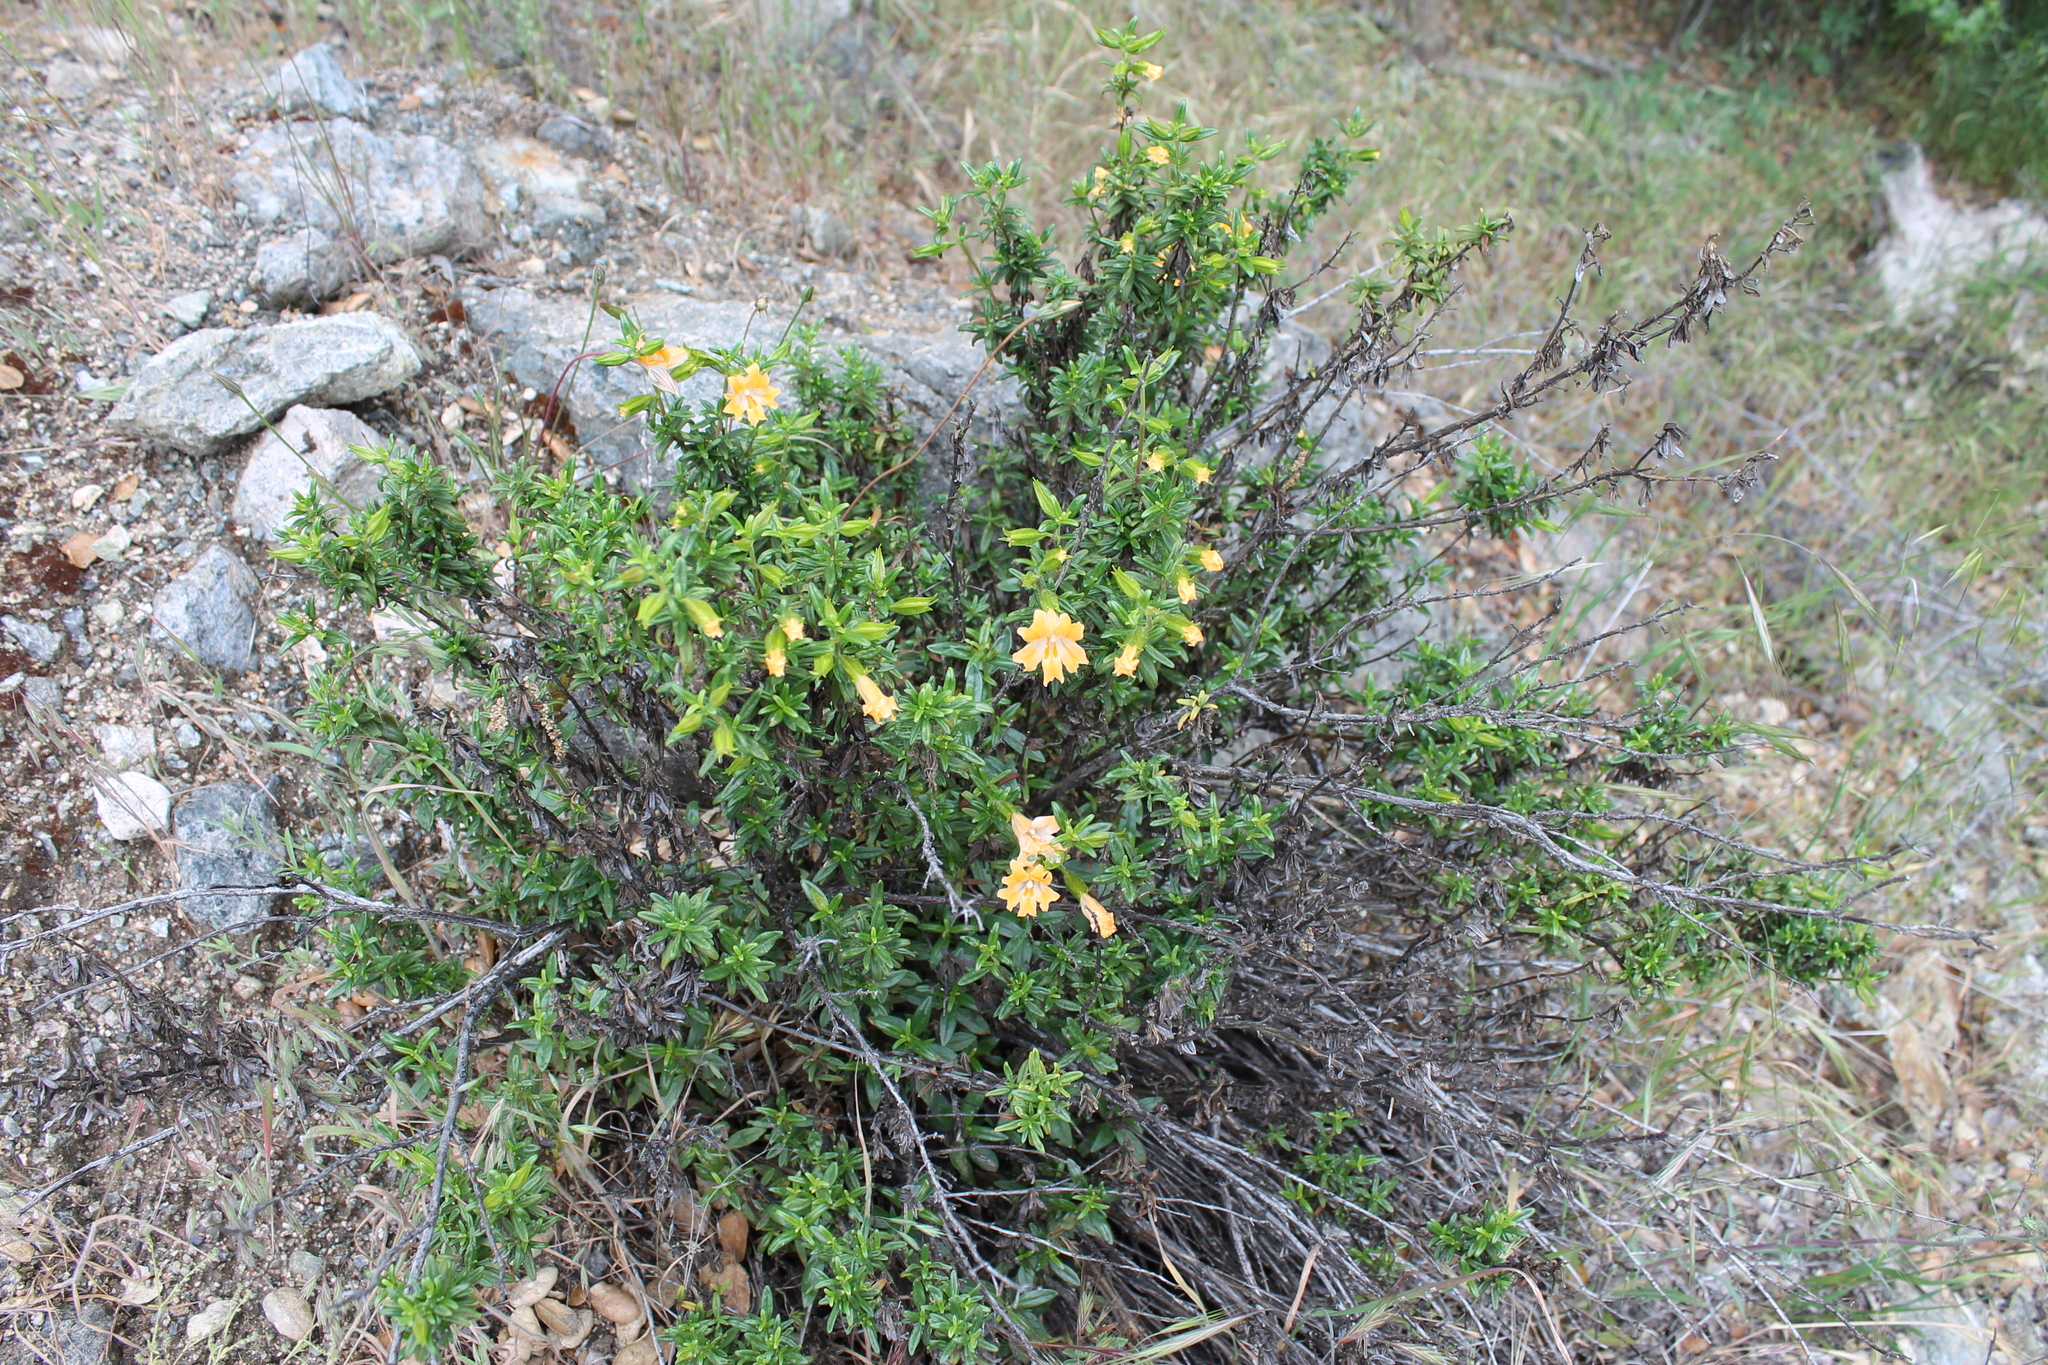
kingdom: Plantae
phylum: Tracheophyta
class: Magnoliopsida
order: Lamiales
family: Phrymaceae
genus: Diplacus
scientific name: Diplacus linearis
